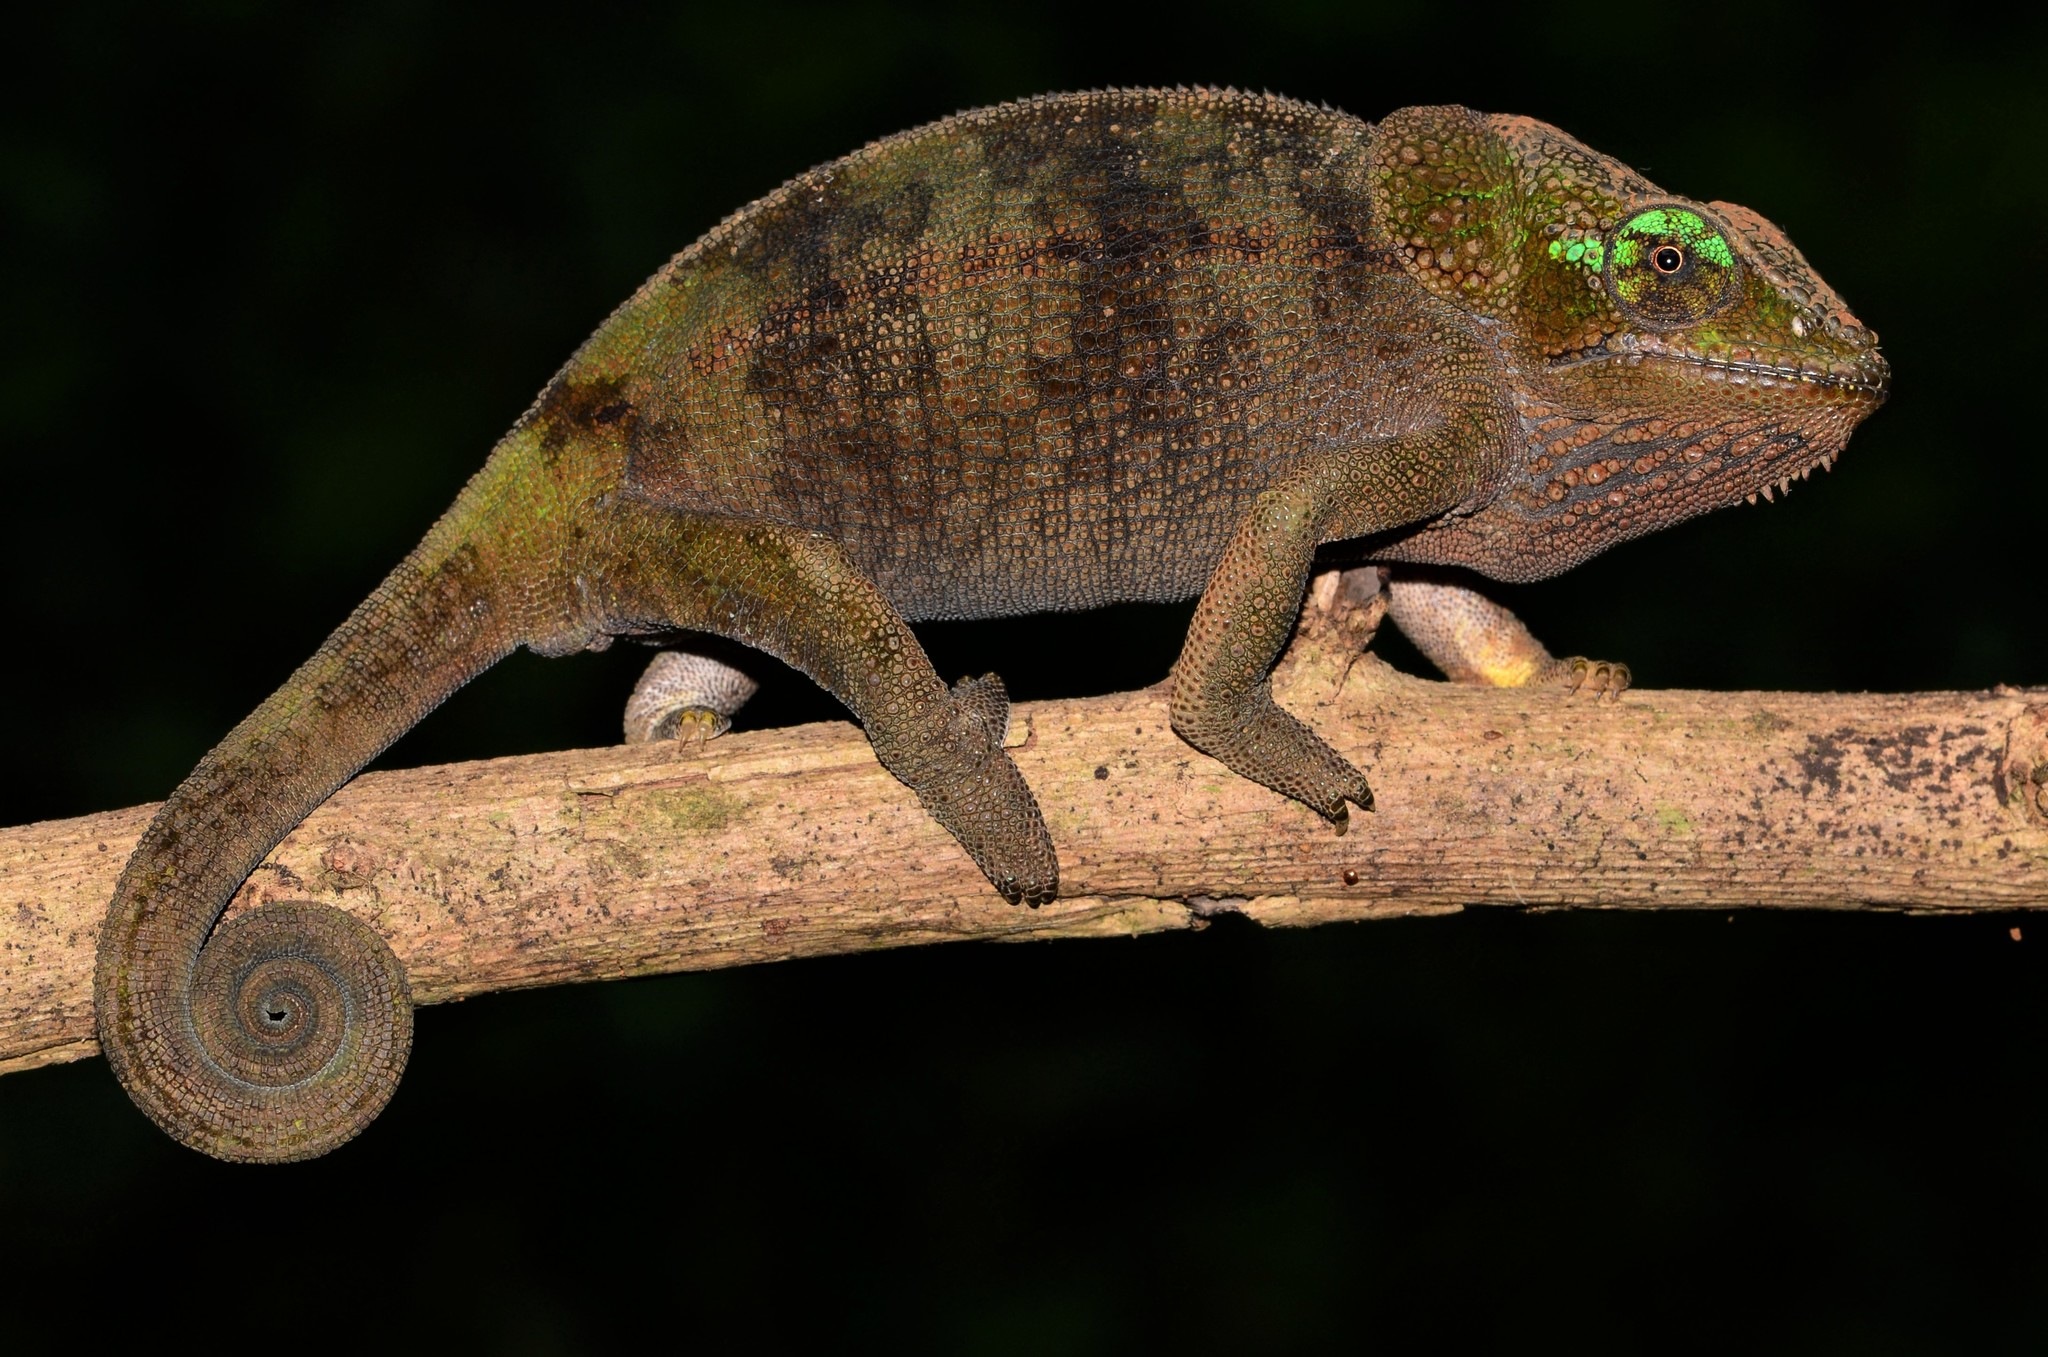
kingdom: Animalia
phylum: Chordata
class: Squamata
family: Chamaeleonidae
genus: Calumma
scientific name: Calumma amber
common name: Amber mountain chameleon
